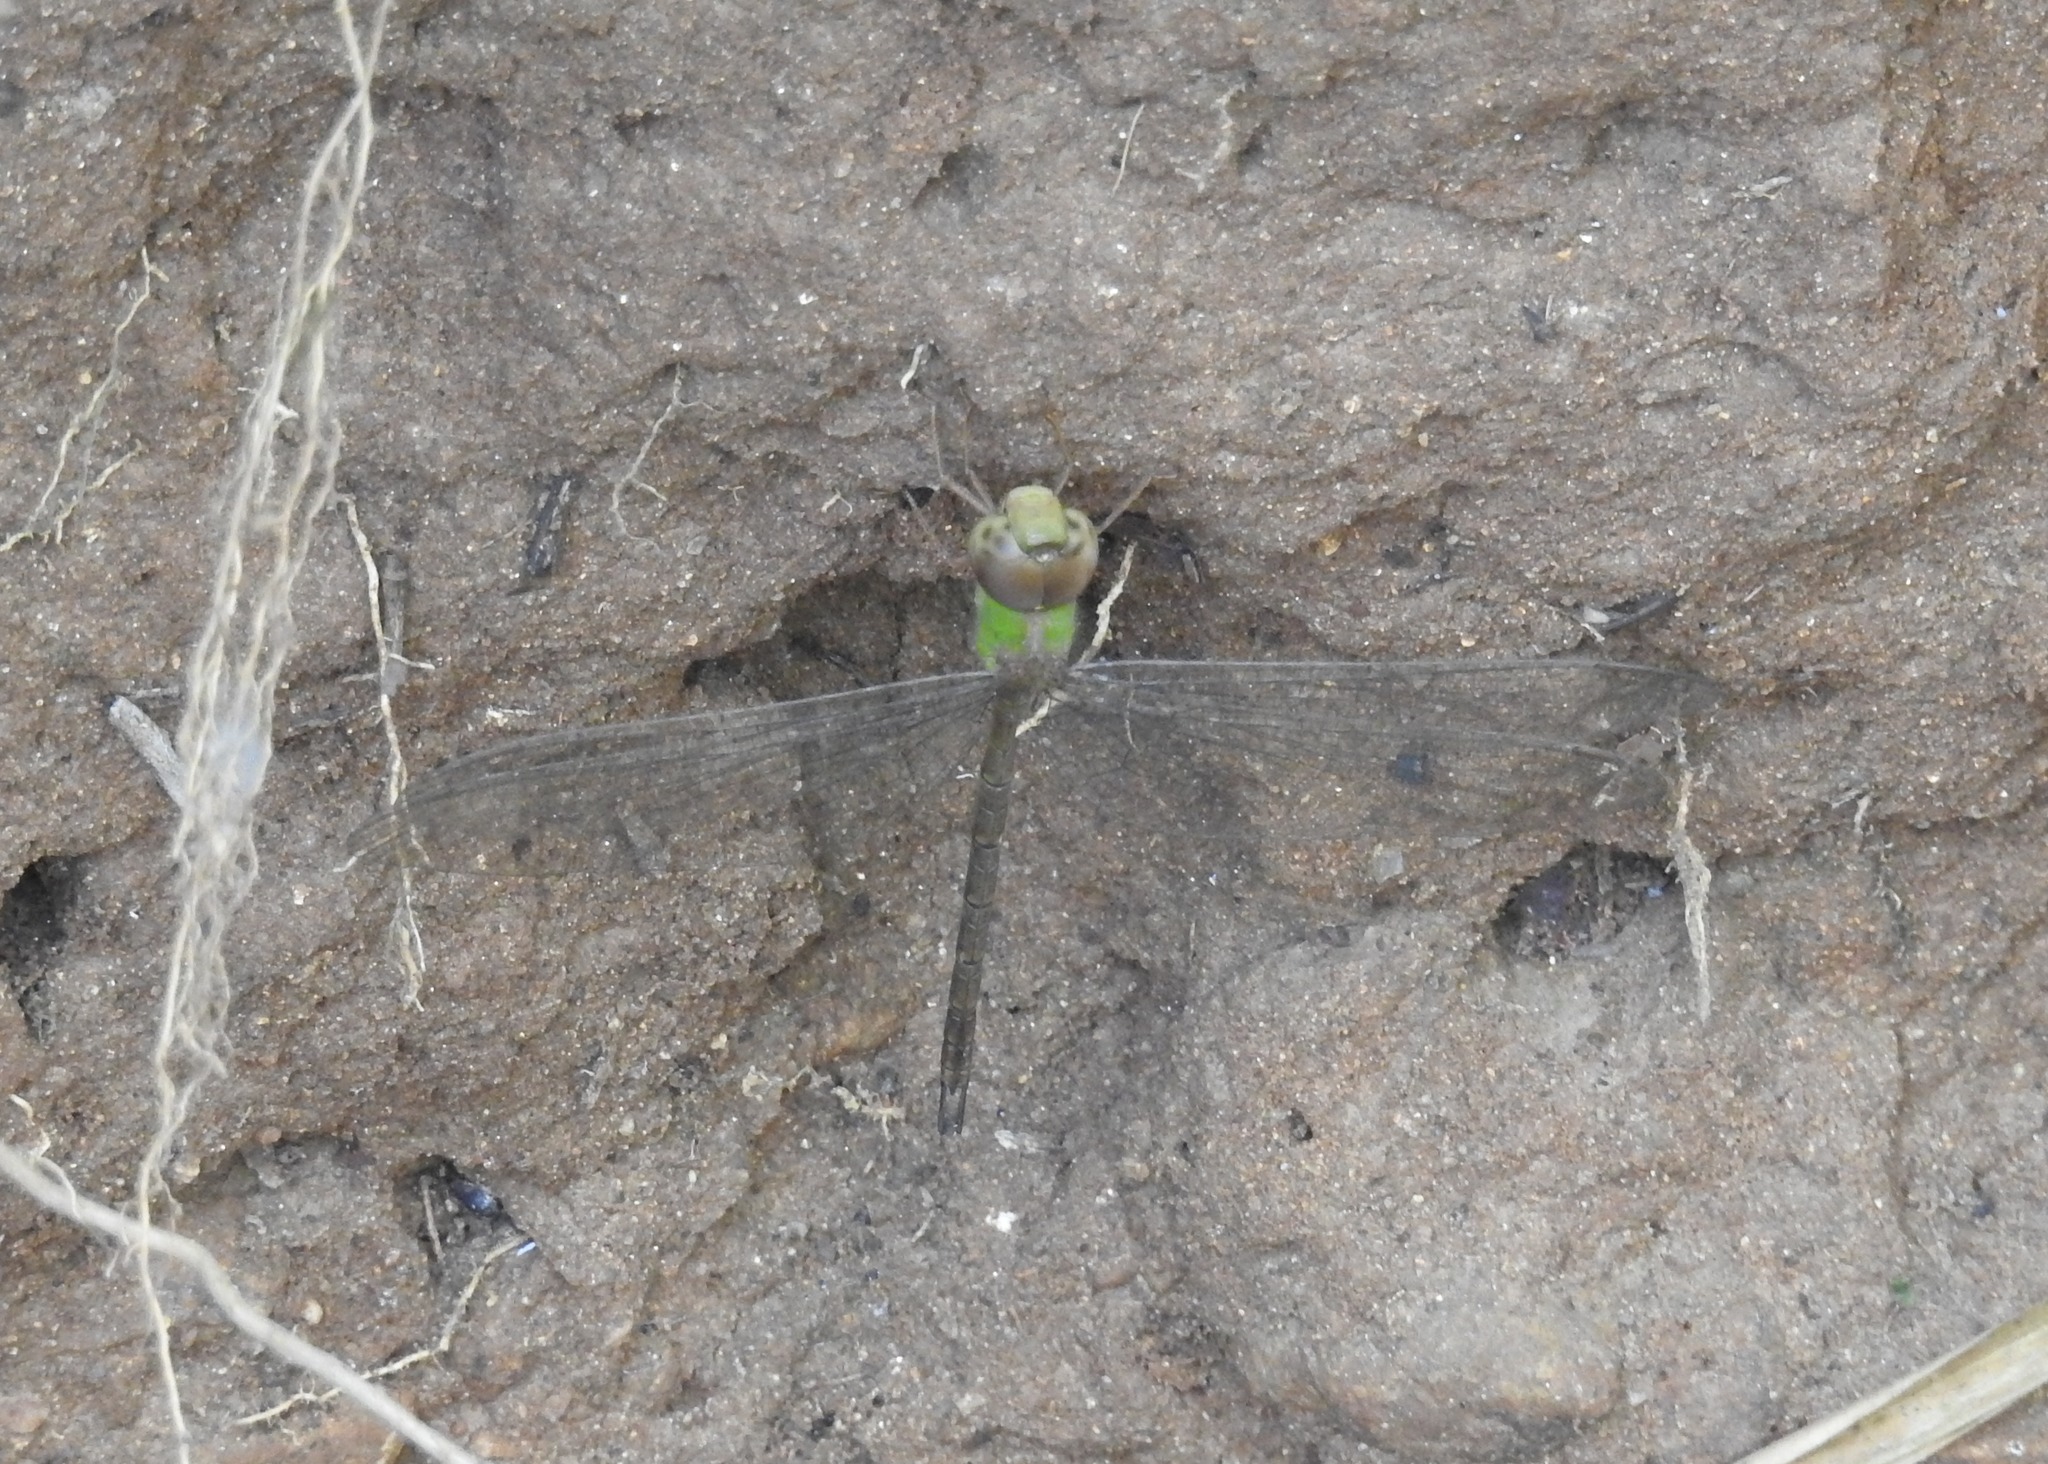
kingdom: Animalia
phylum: Arthropoda
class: Insecta
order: Odonata
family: Aeshnidae
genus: Gynacantha
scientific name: Gynacantha bayadera
